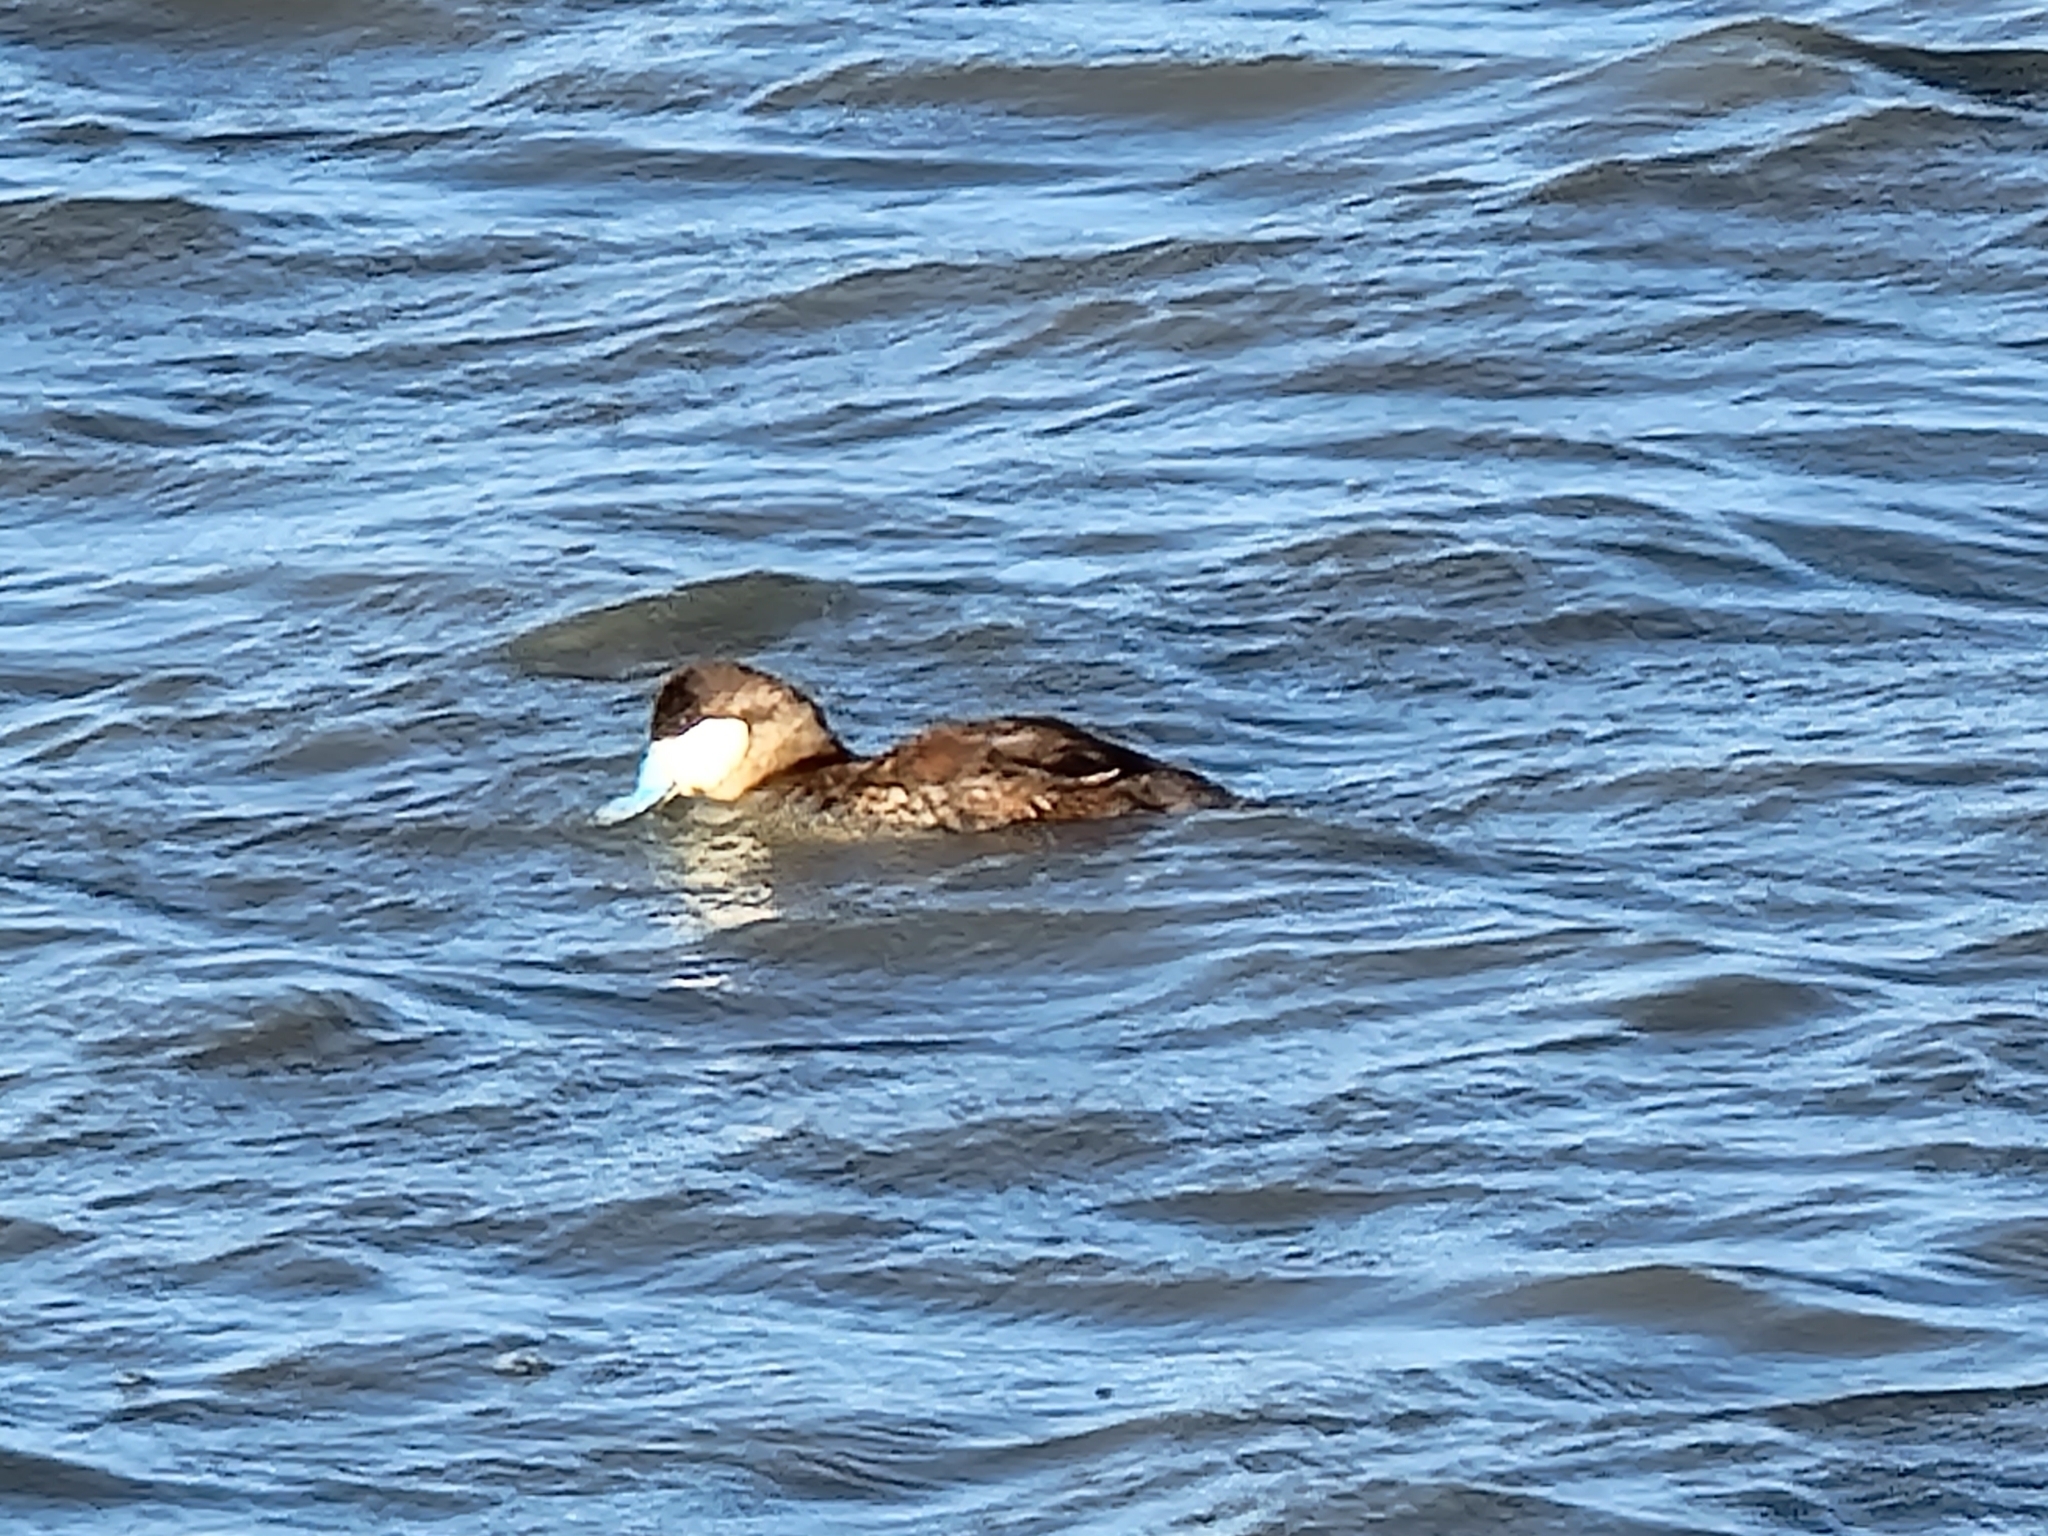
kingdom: Animalia
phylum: Chordata
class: Aves
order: Anseriformes
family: Anatidae
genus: Oxyura
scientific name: Oxyura jamaicensis
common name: Ruddy duck
